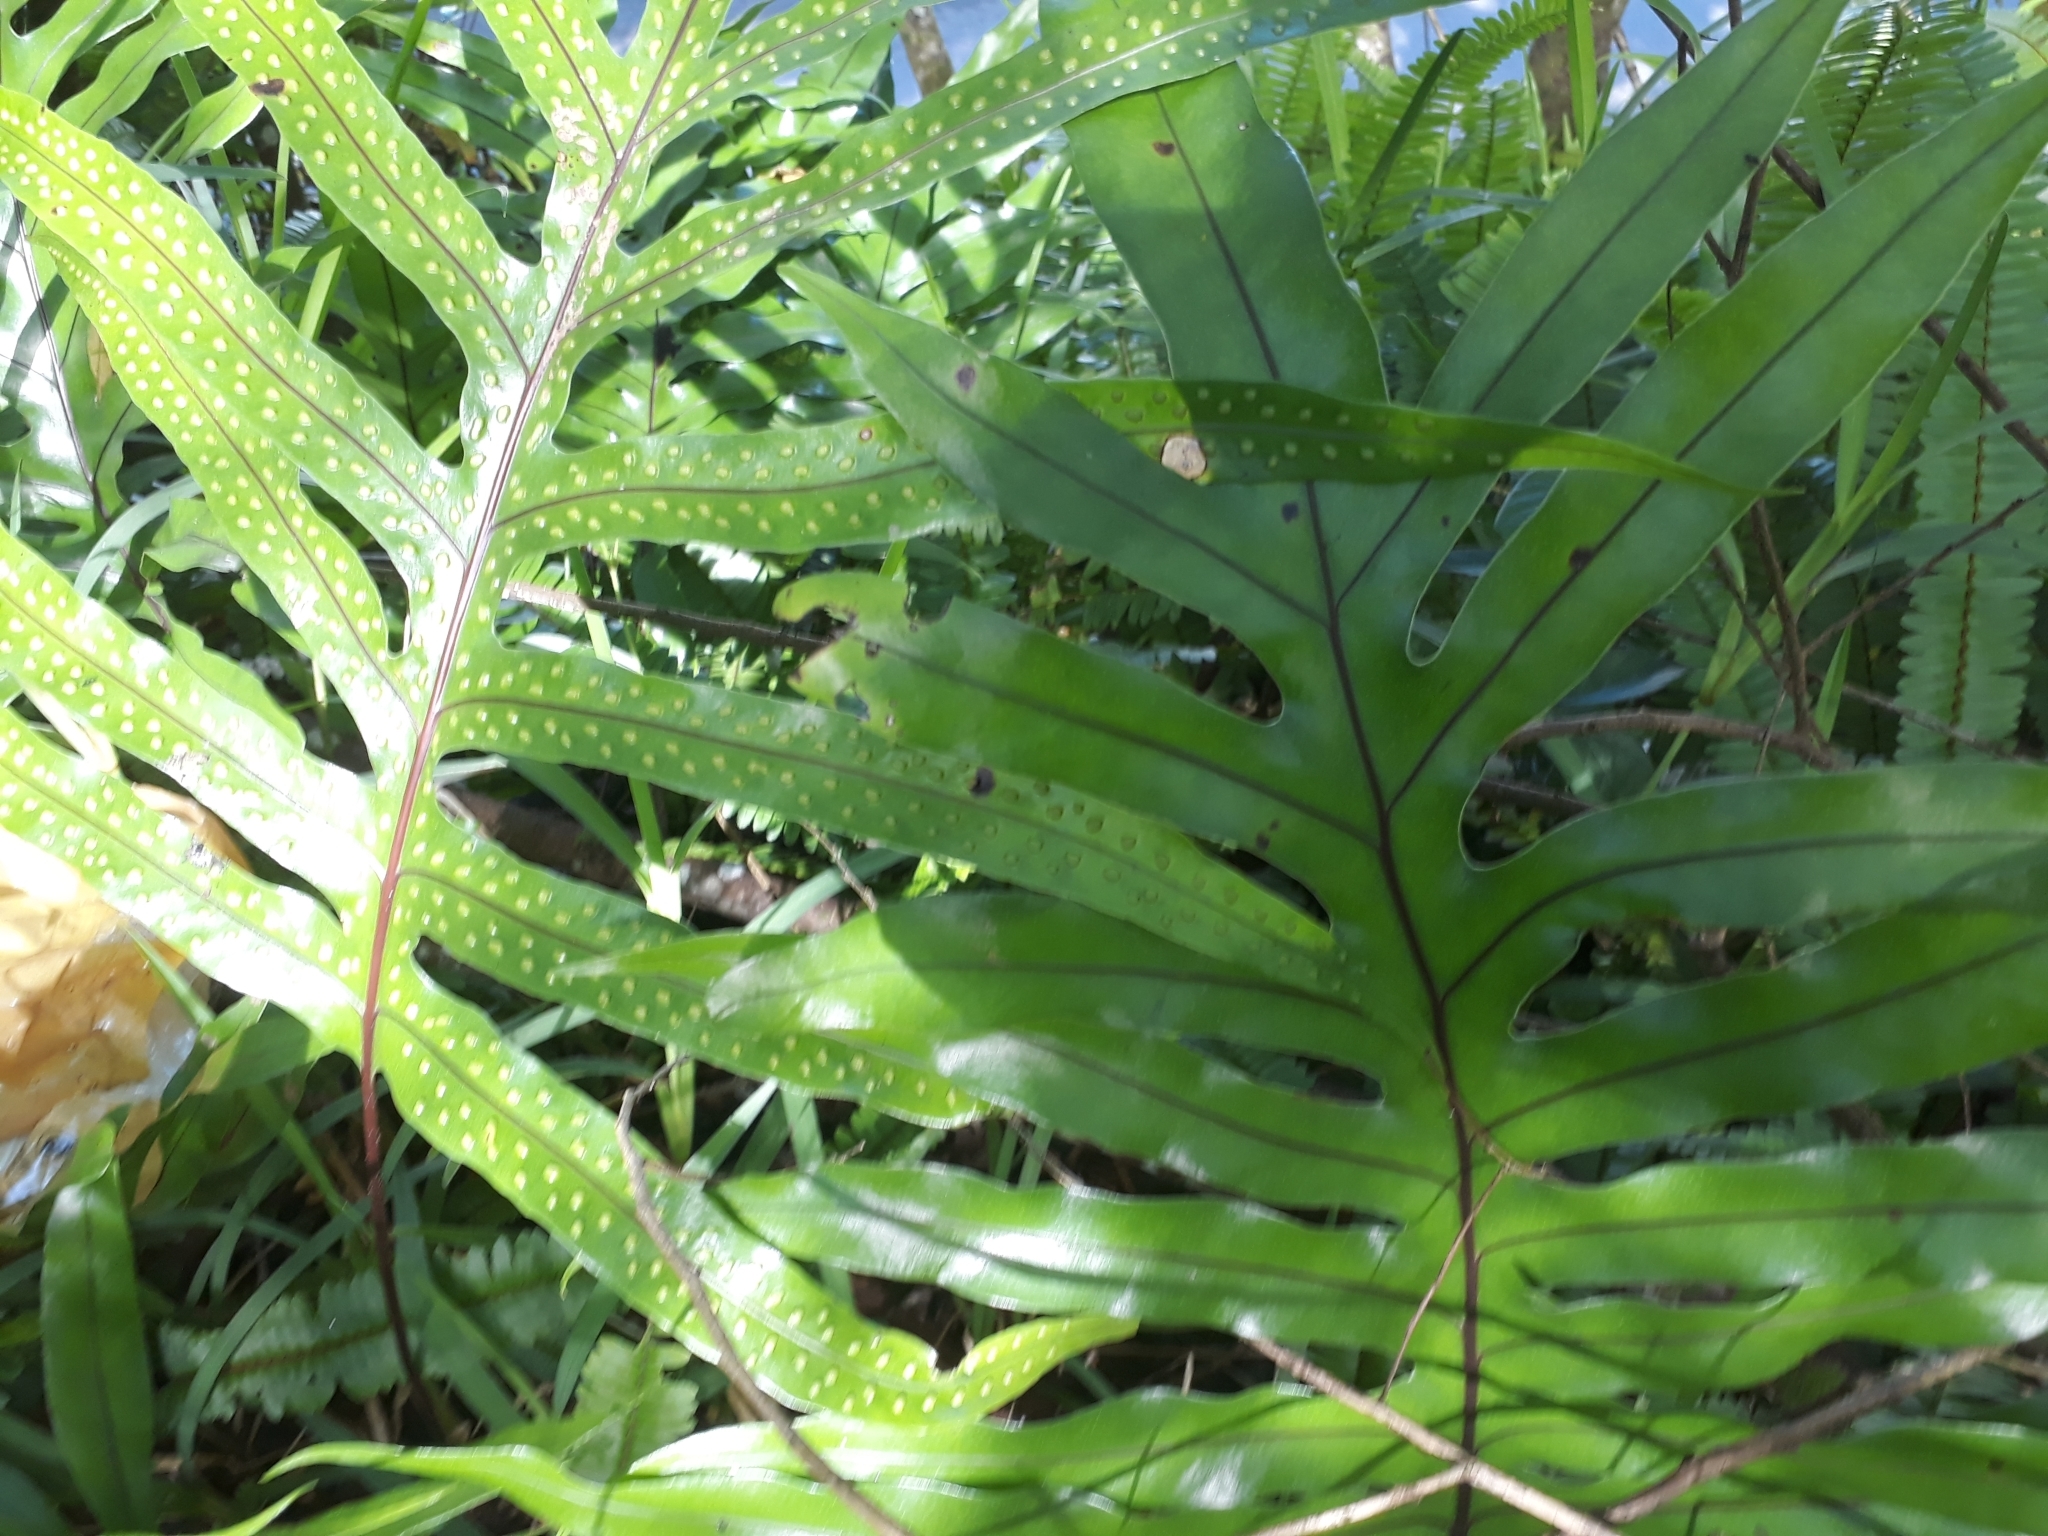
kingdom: Plantae
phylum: Tracheophyta
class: Polypodiopsida
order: Polypodiales
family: Polypodiaceae
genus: Microsorum
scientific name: Microsorum scolopendria
